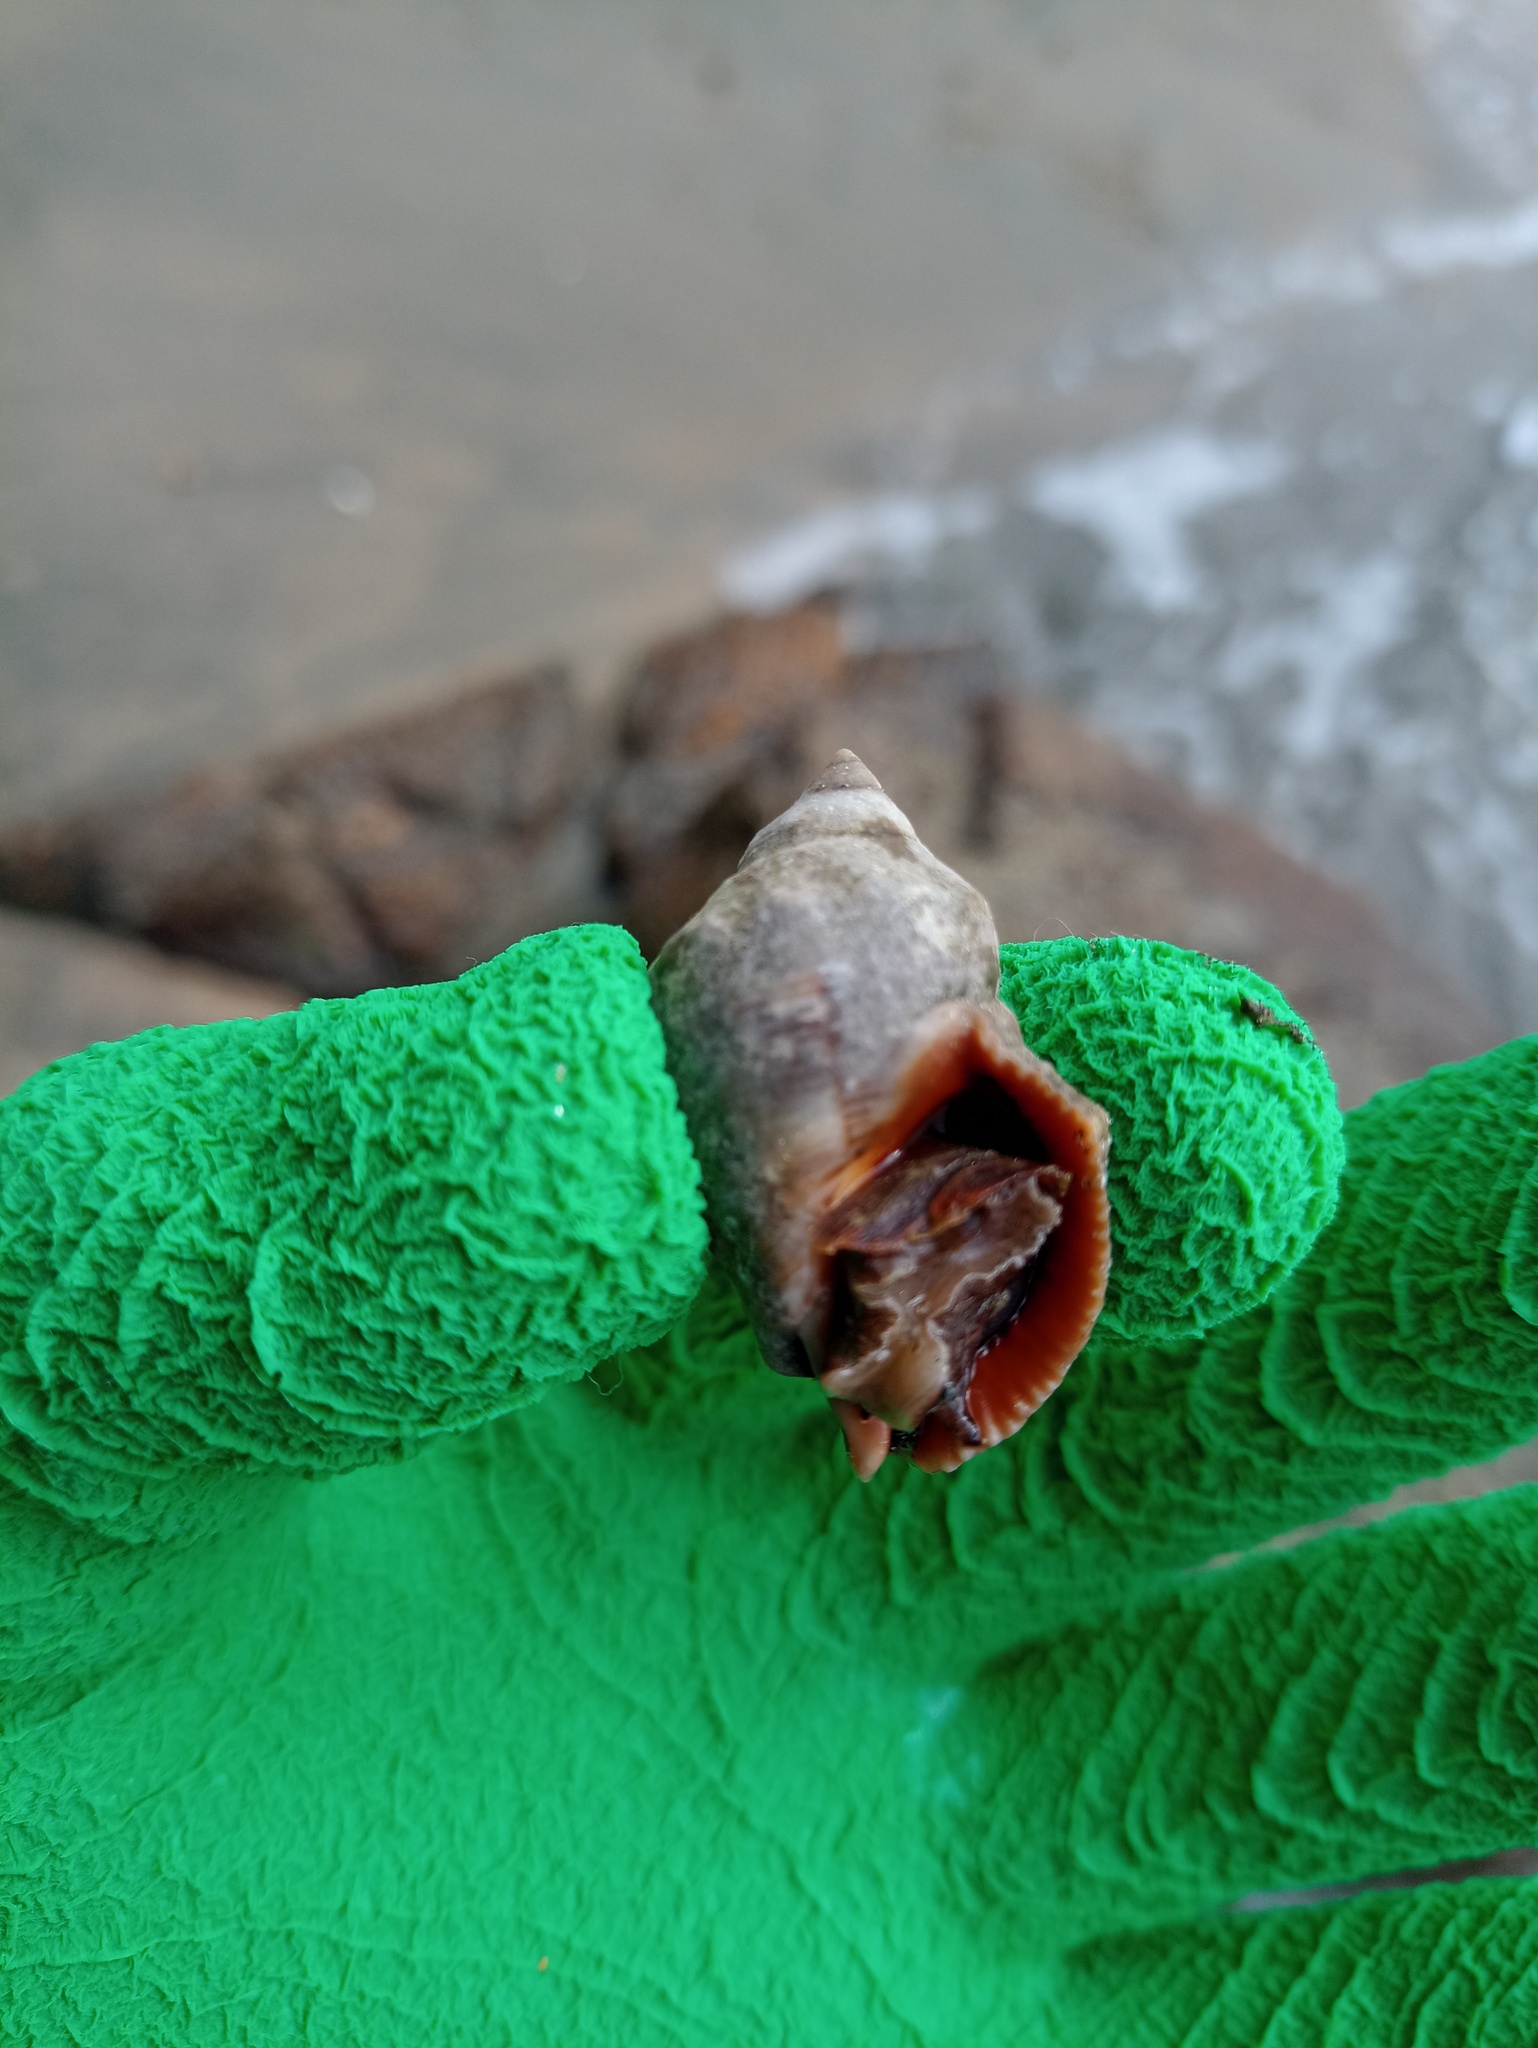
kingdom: Animalia
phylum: Mollusca
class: Gastropoda
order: Neogastropoda
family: Muricidae
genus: Stramonita
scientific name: Stramonita brasiliensis
